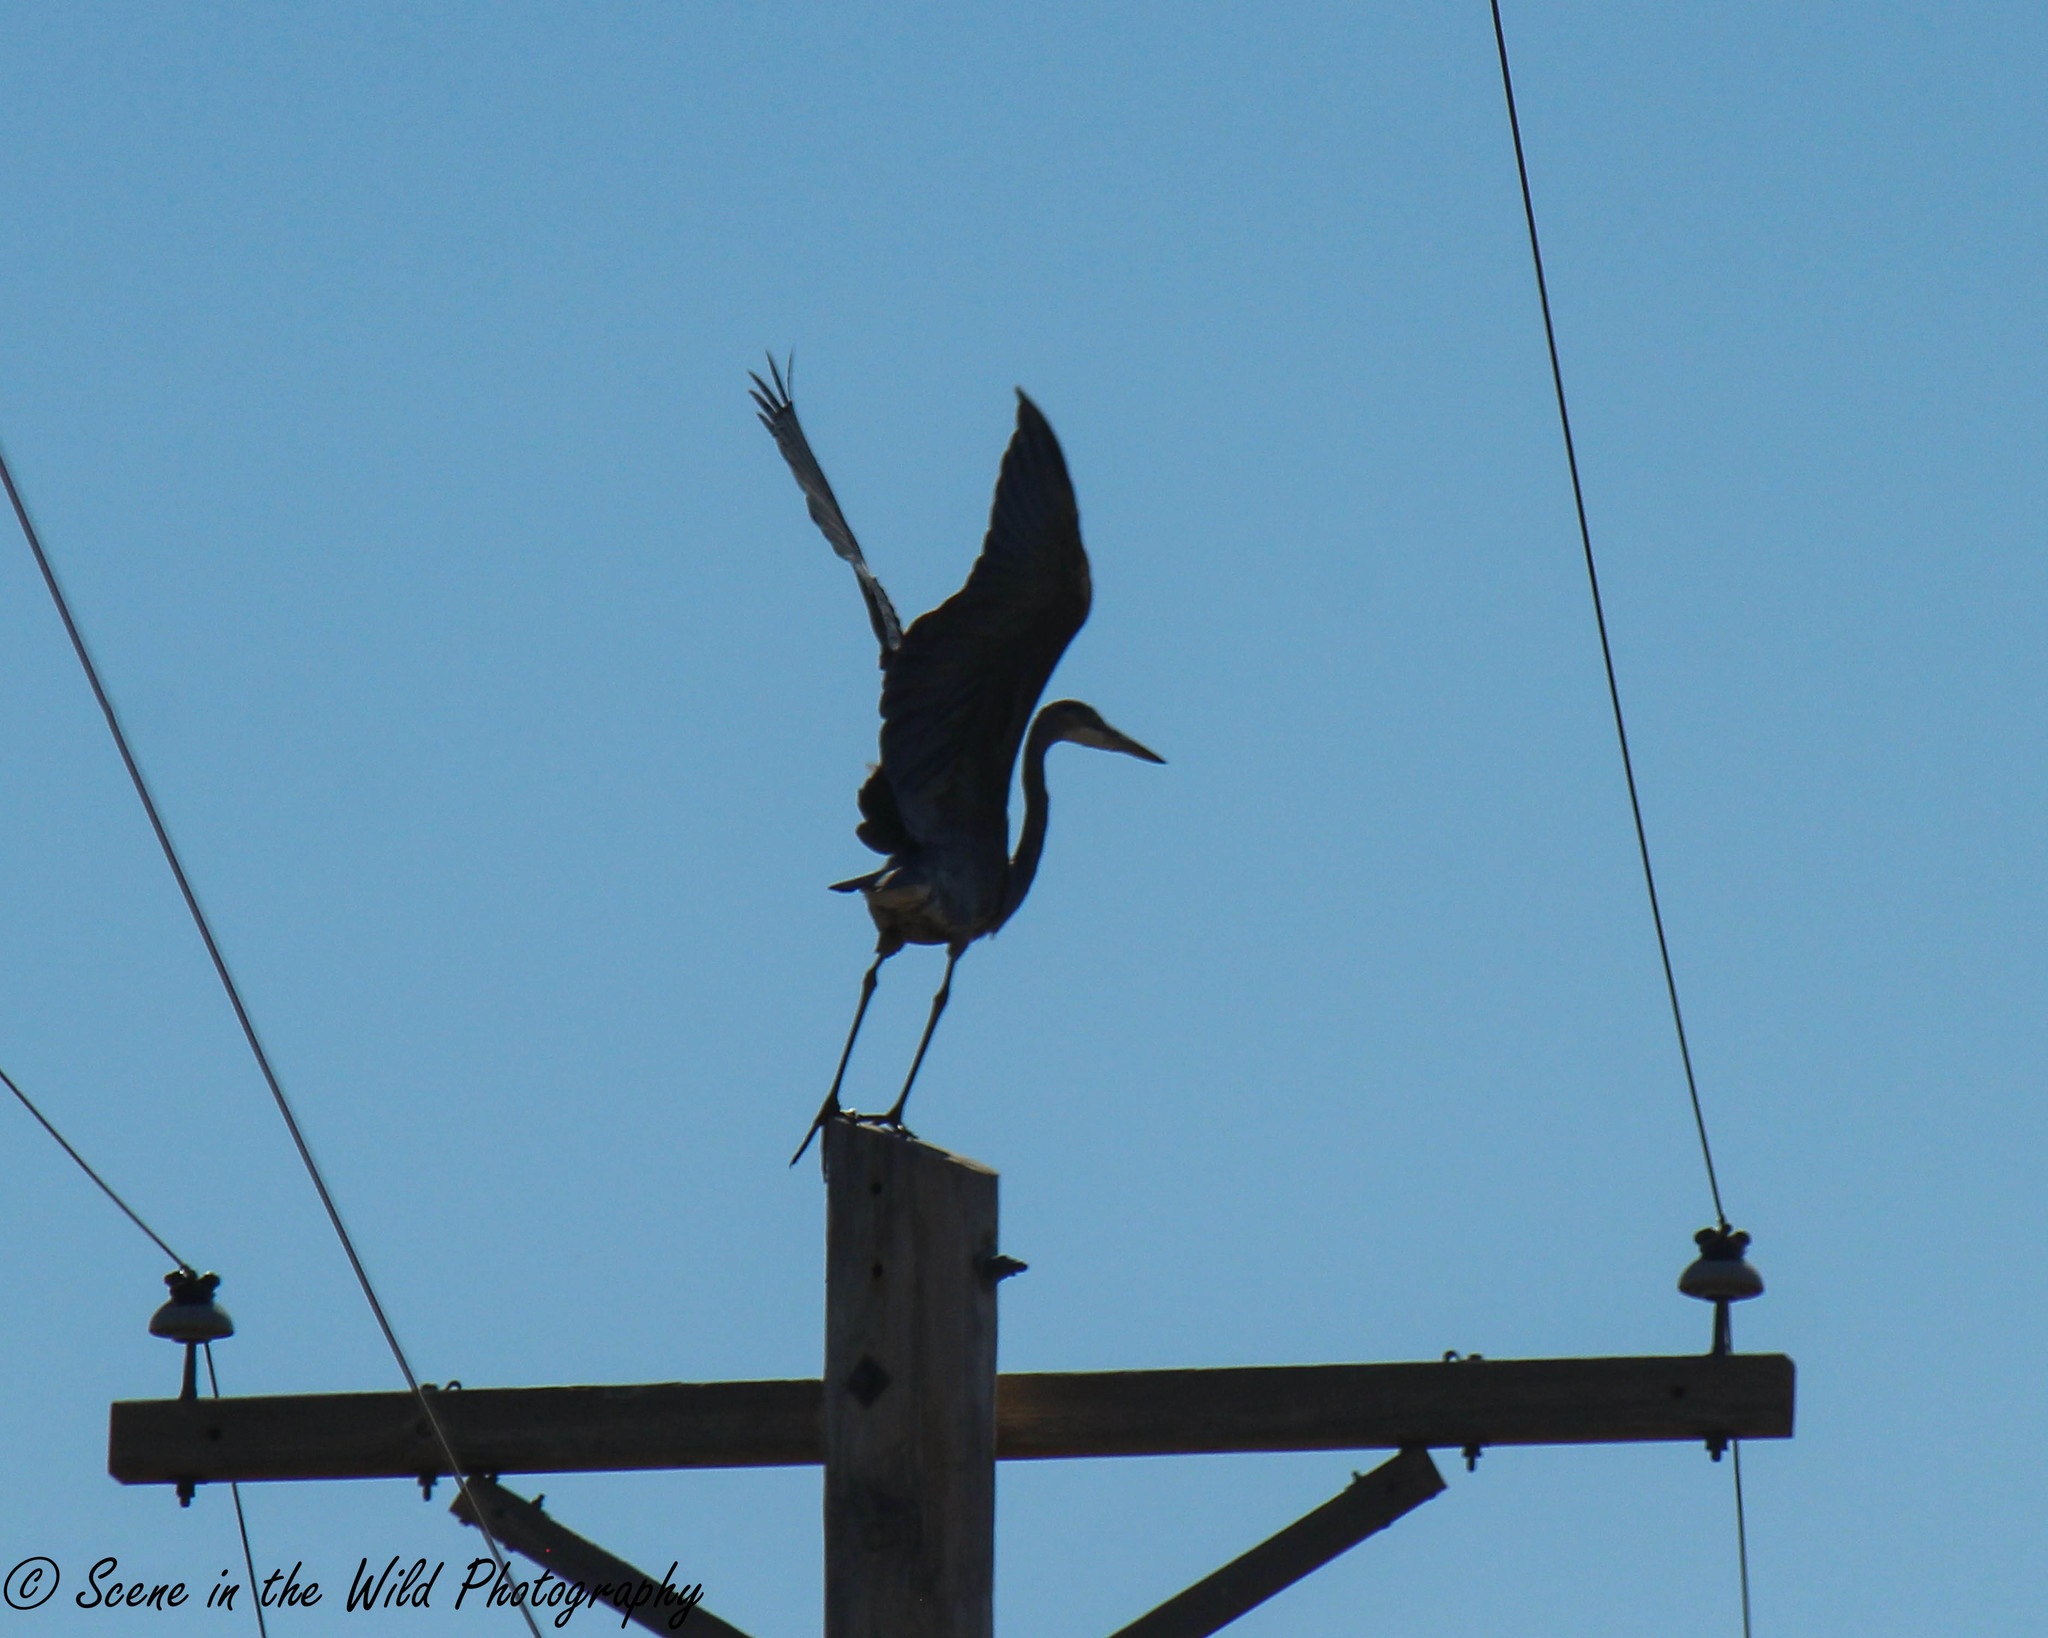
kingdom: Animalia
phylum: Chordata
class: Aves
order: Pelecaniformes
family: Ardeidae
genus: Ardea
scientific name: Ardea herodias
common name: Great blue heron
